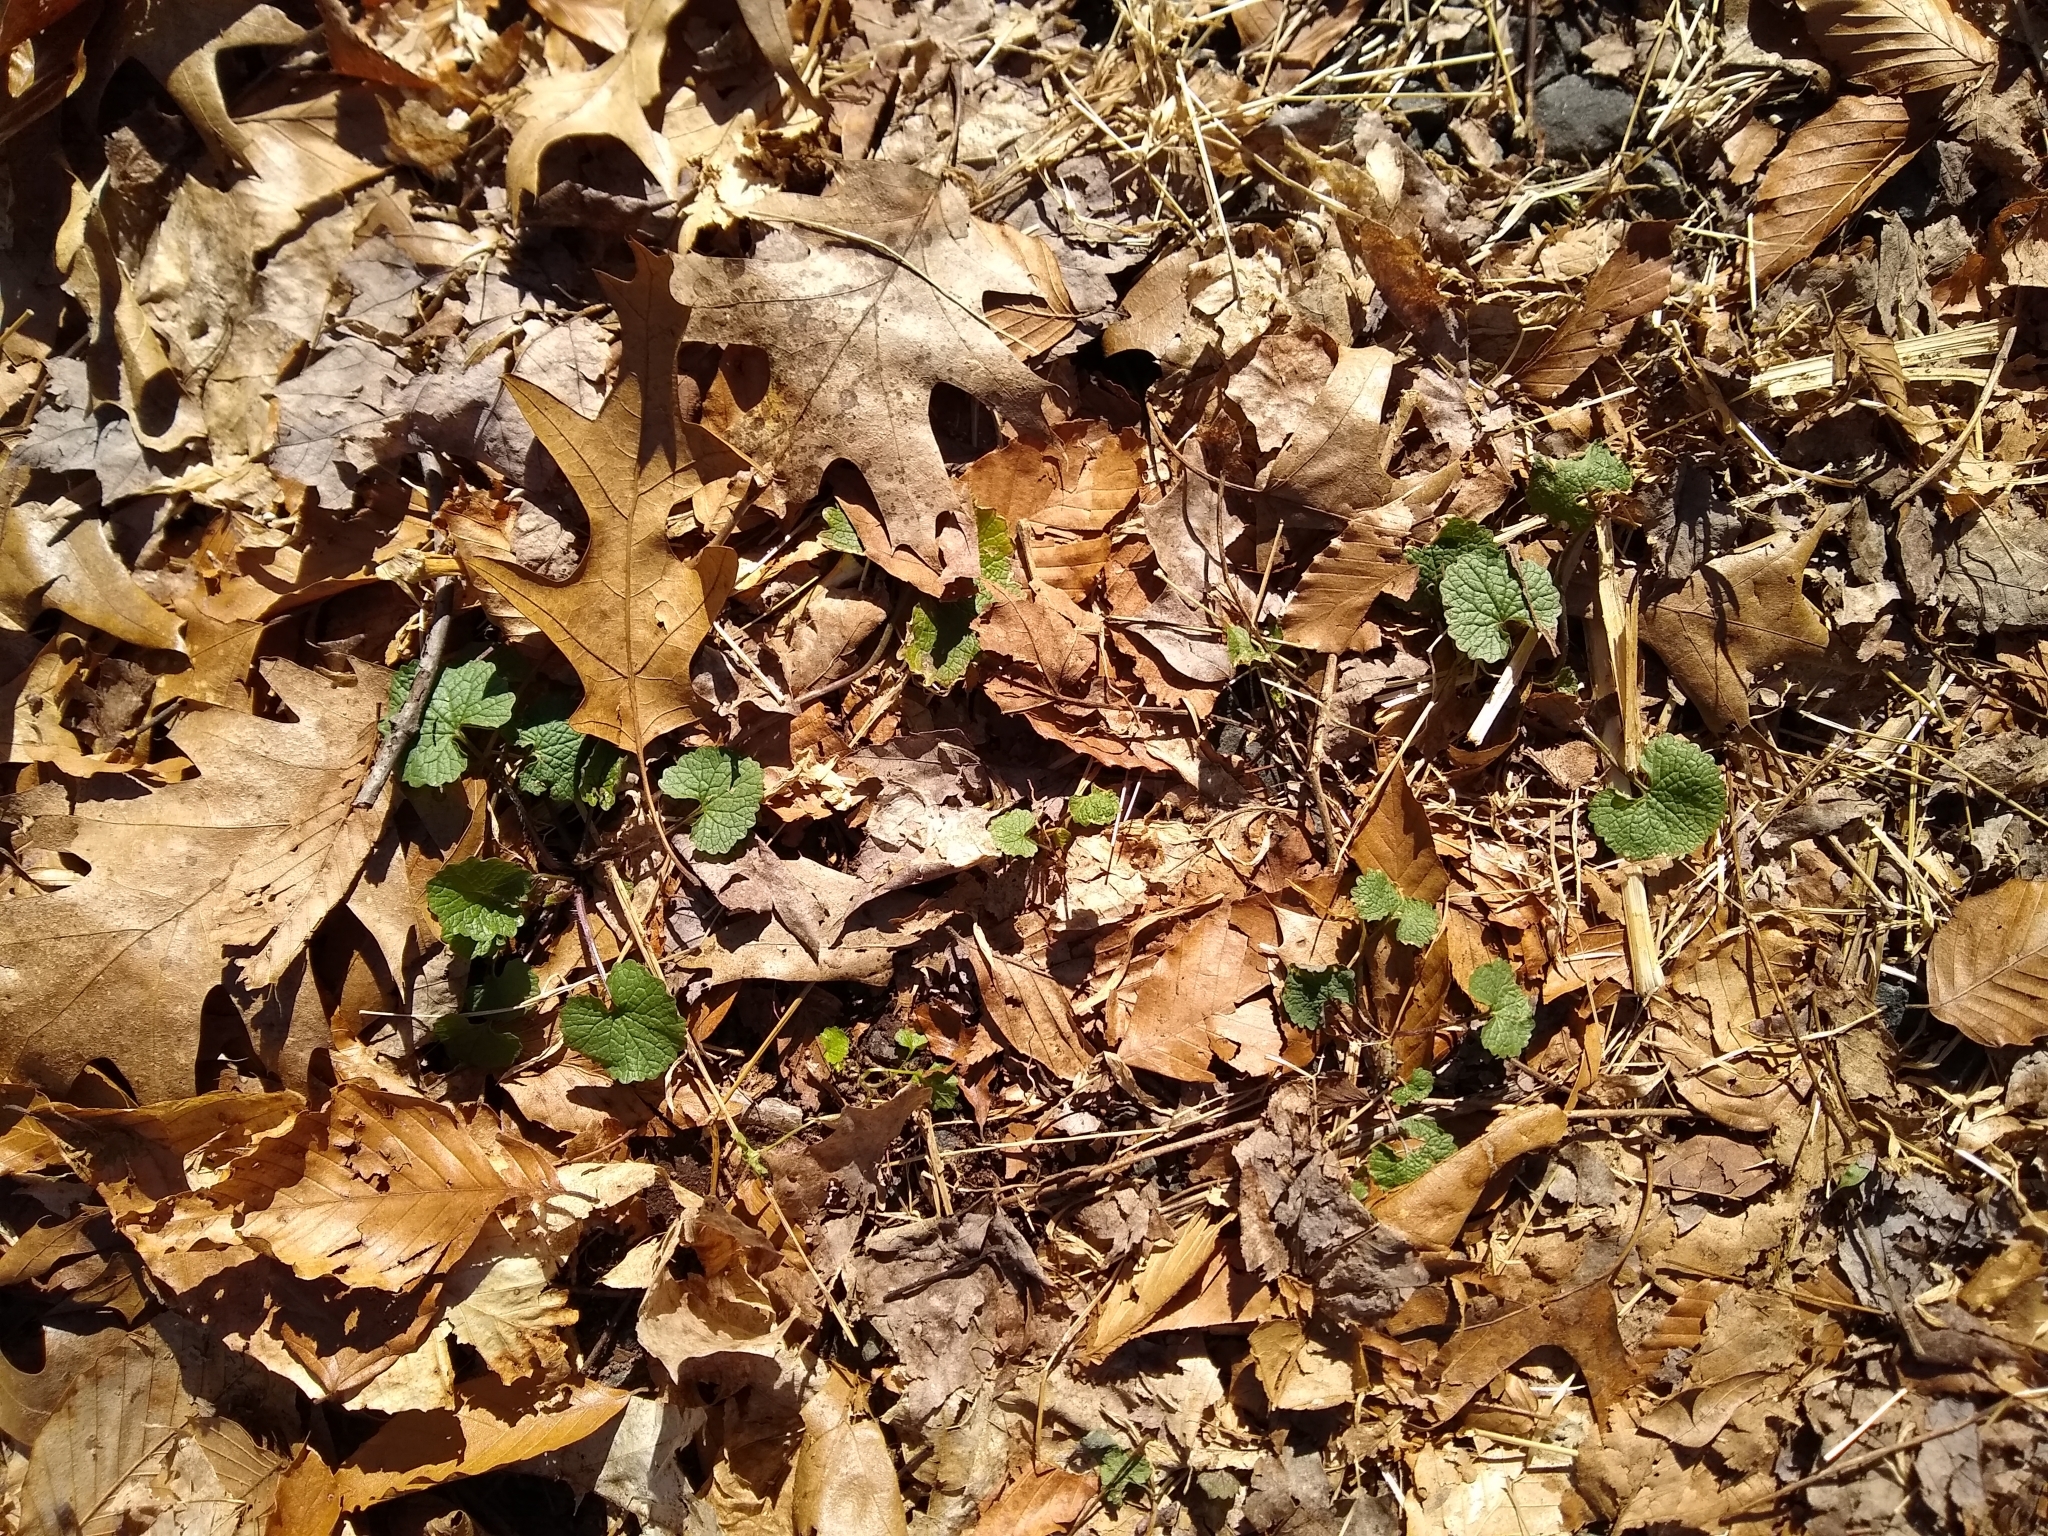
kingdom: Plantae
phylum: Tracheophyta
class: Magnoliopsida
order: Brassicales
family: Brassicaceae
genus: Alliaria
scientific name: Alliaria petiolata
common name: Garlic mustard
